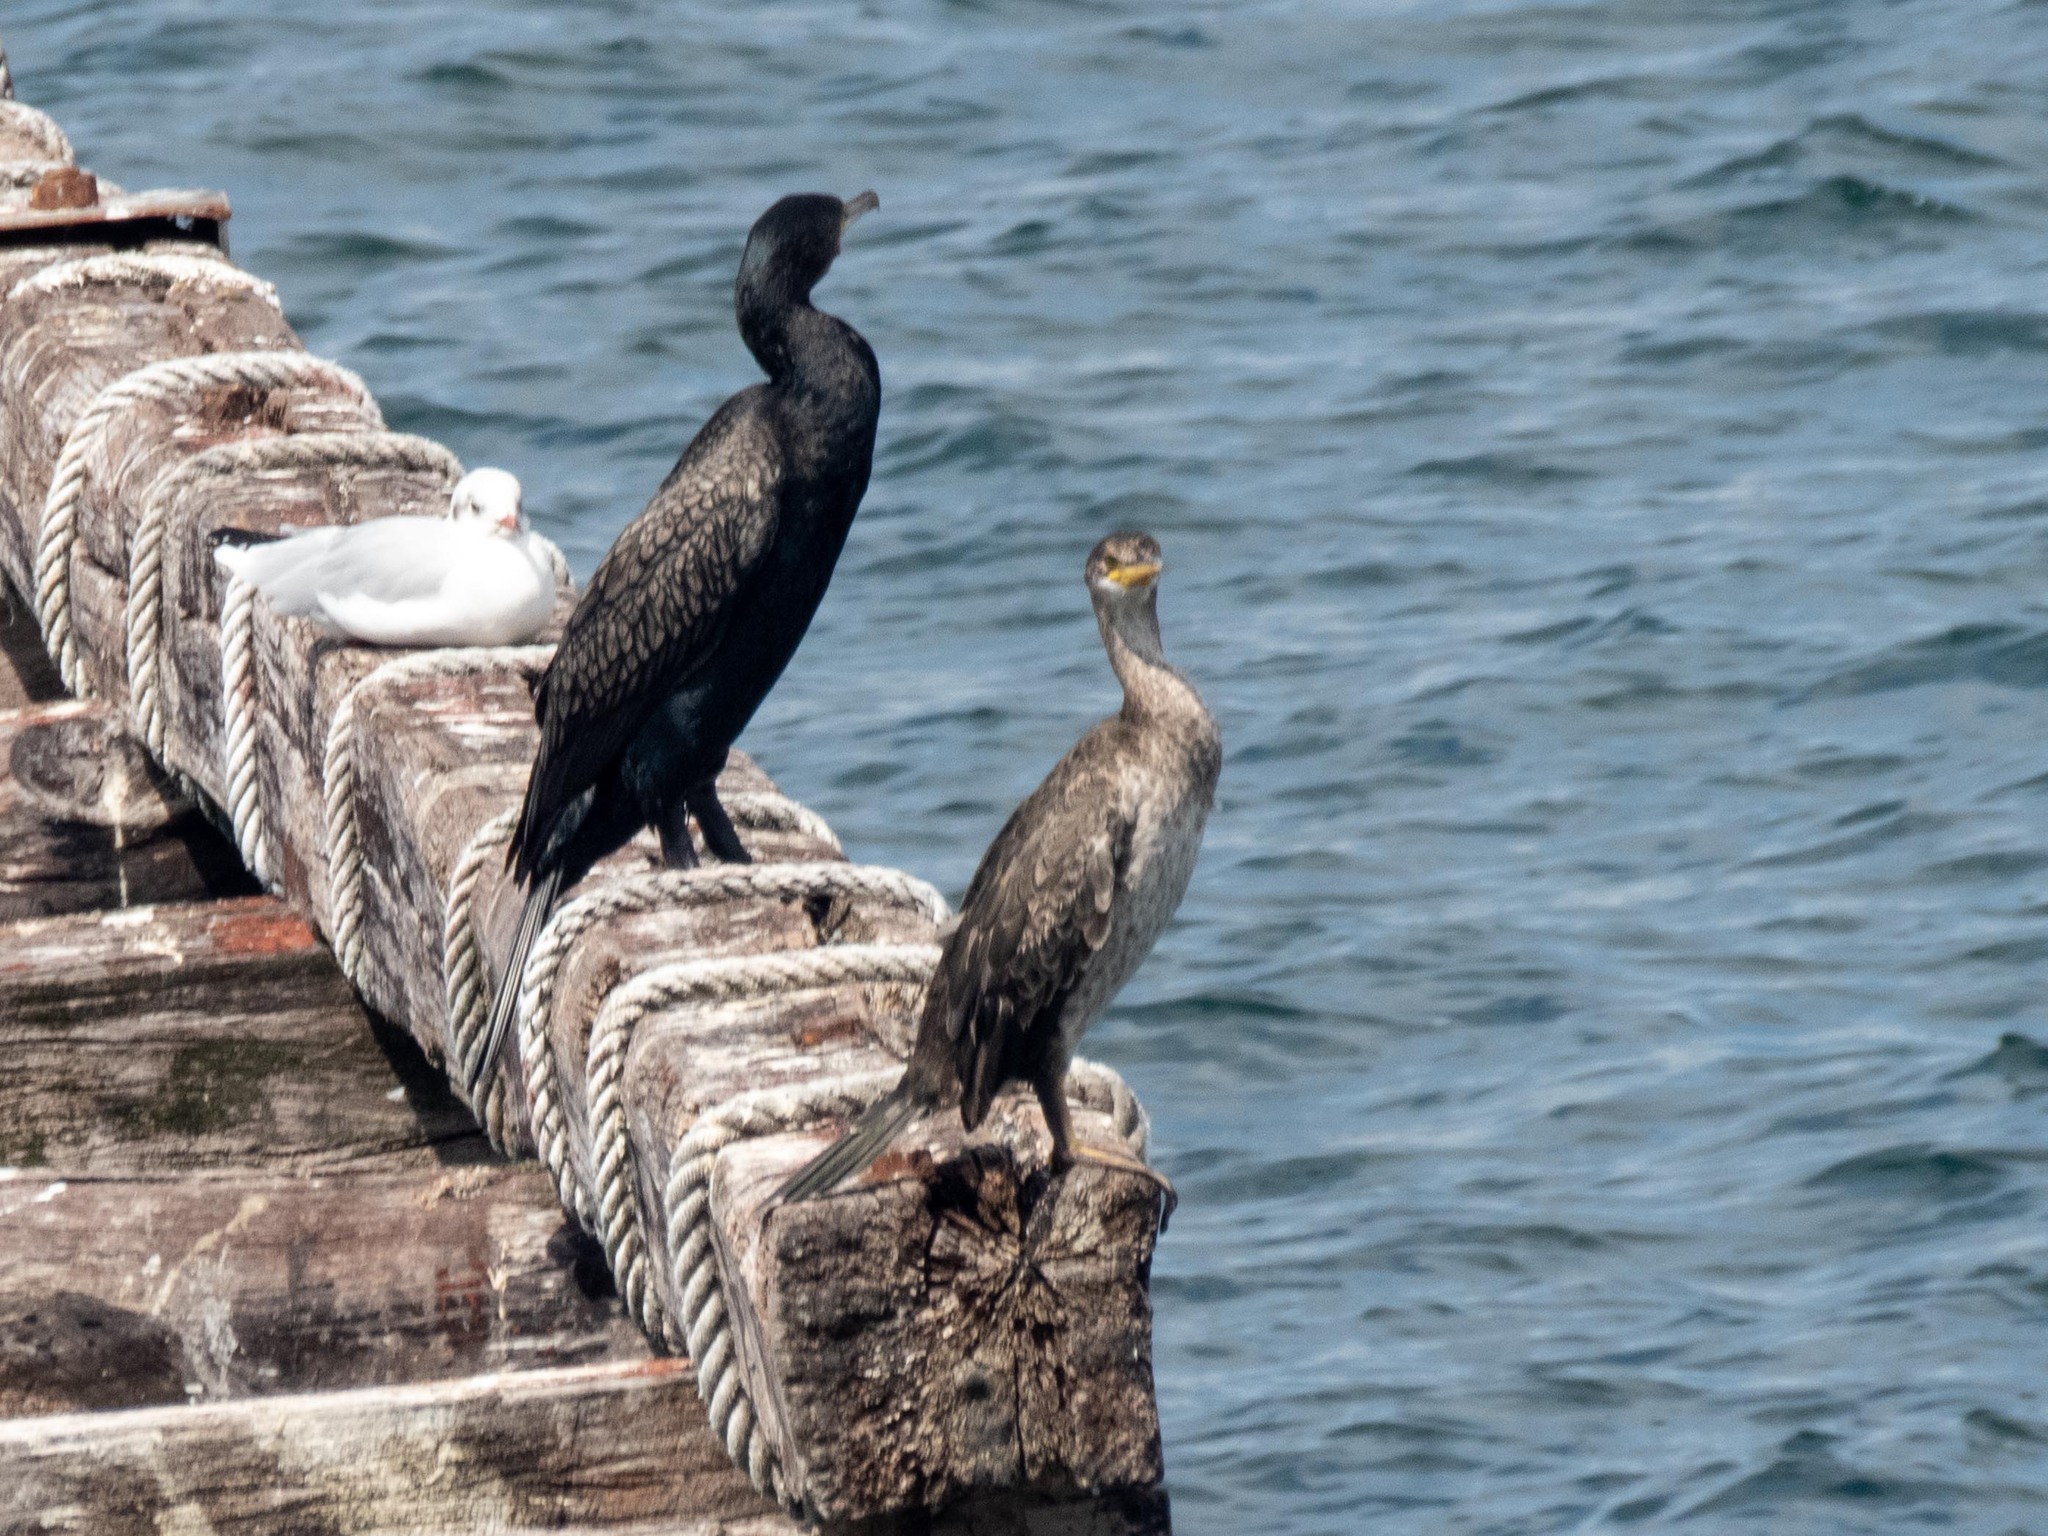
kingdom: Animalia
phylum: Chordata
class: Aves
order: Suliformes
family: Phalacrocoracidae
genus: Phalacrocorax
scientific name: Phalacrocorax carbo
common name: Great cormorant
